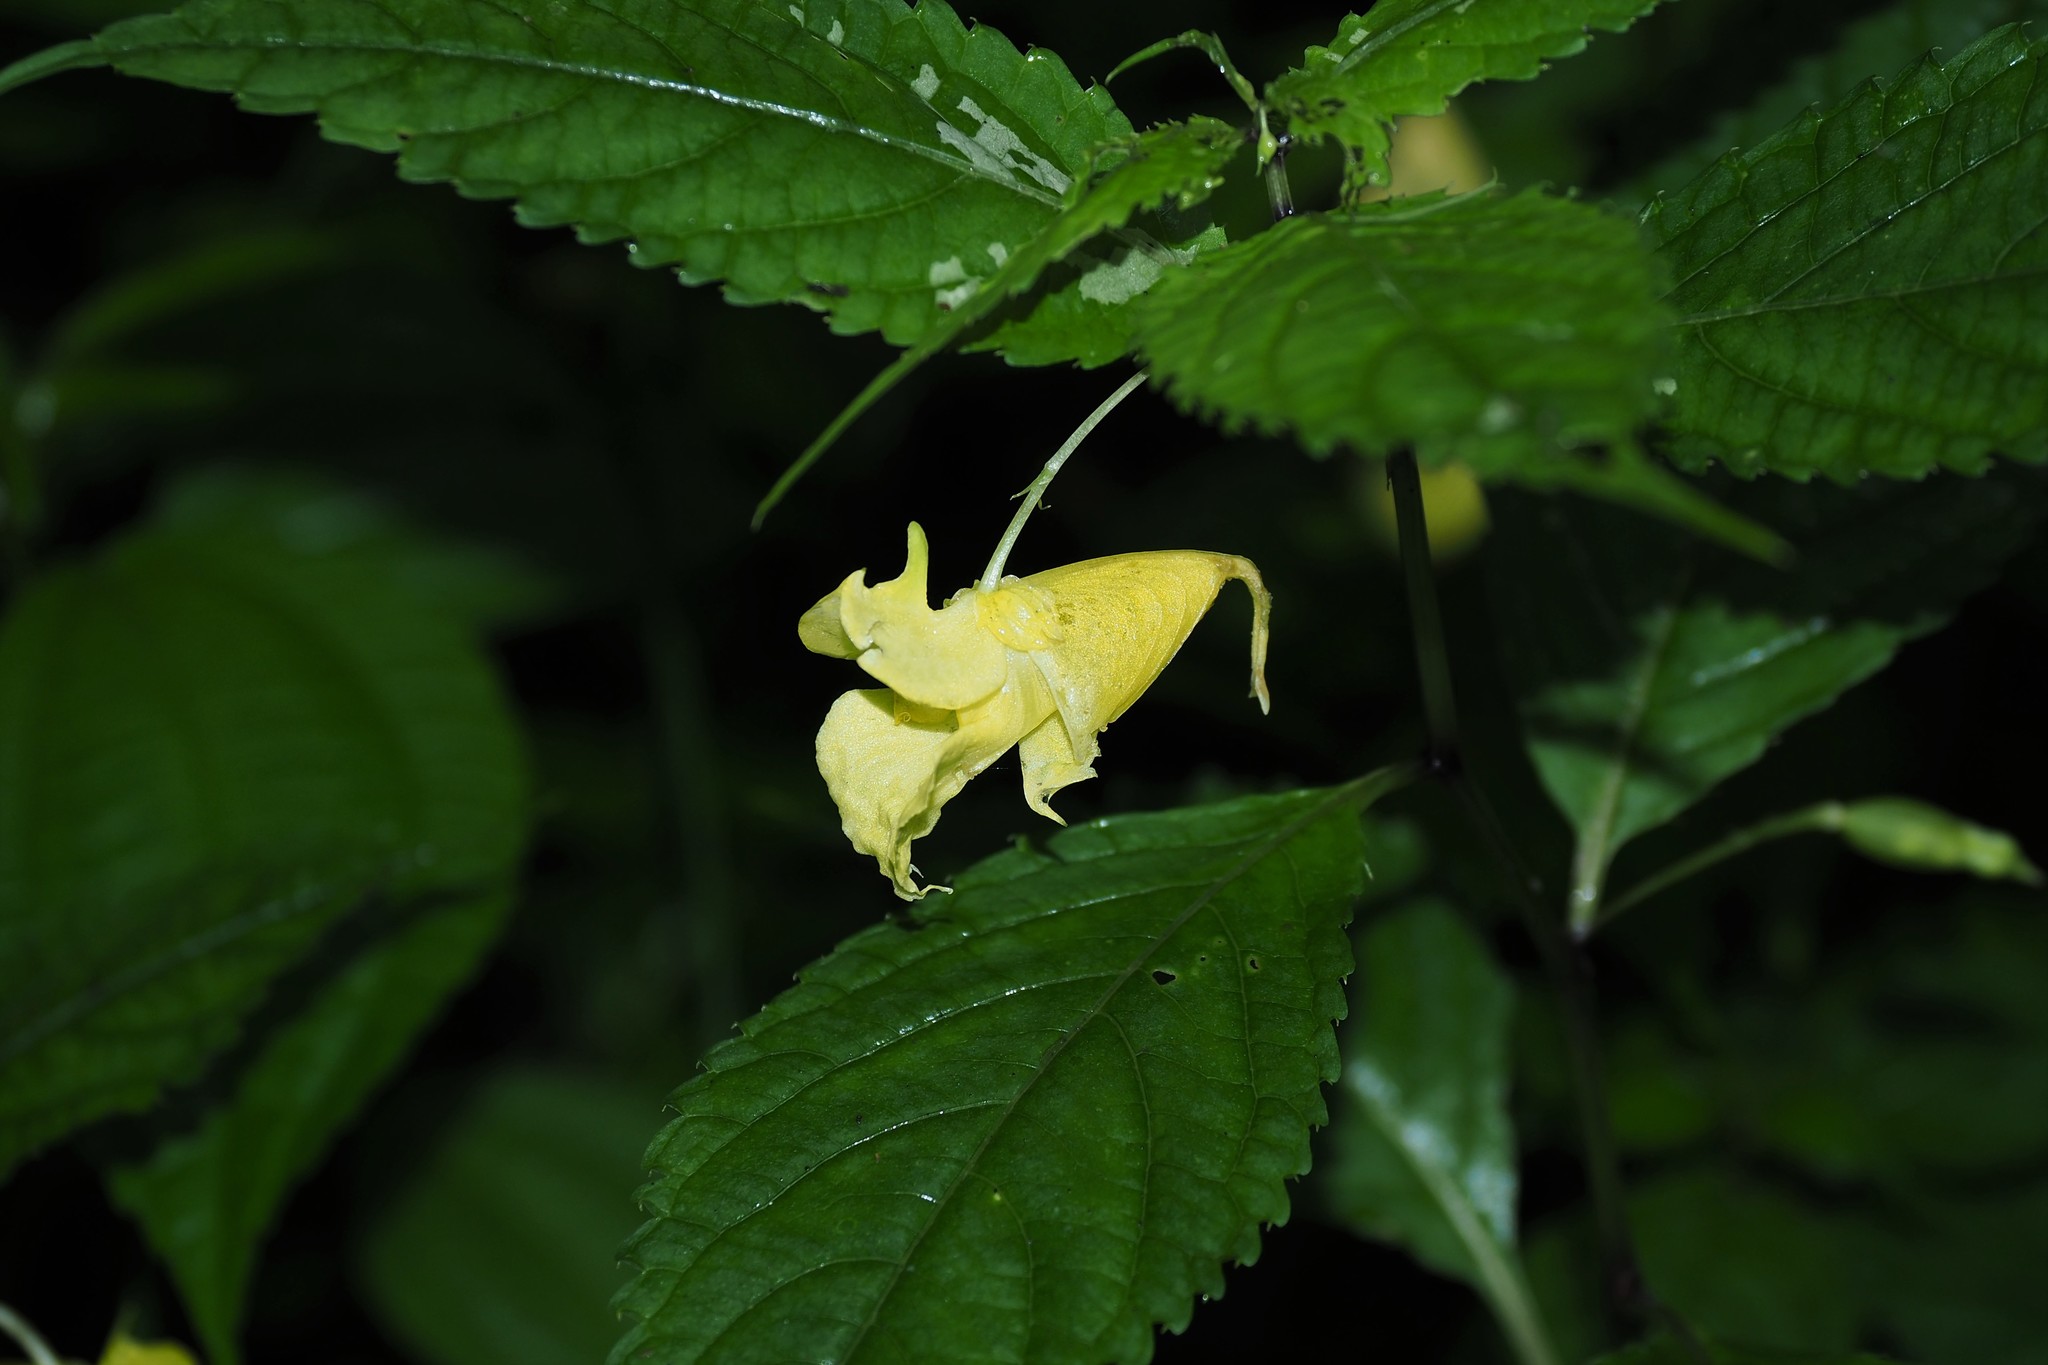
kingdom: Plantae
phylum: Tracheophyta
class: Magnoliopsida
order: Ericales
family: Balsaminaceae
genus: Impatiens
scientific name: Impatiens tayemonii
